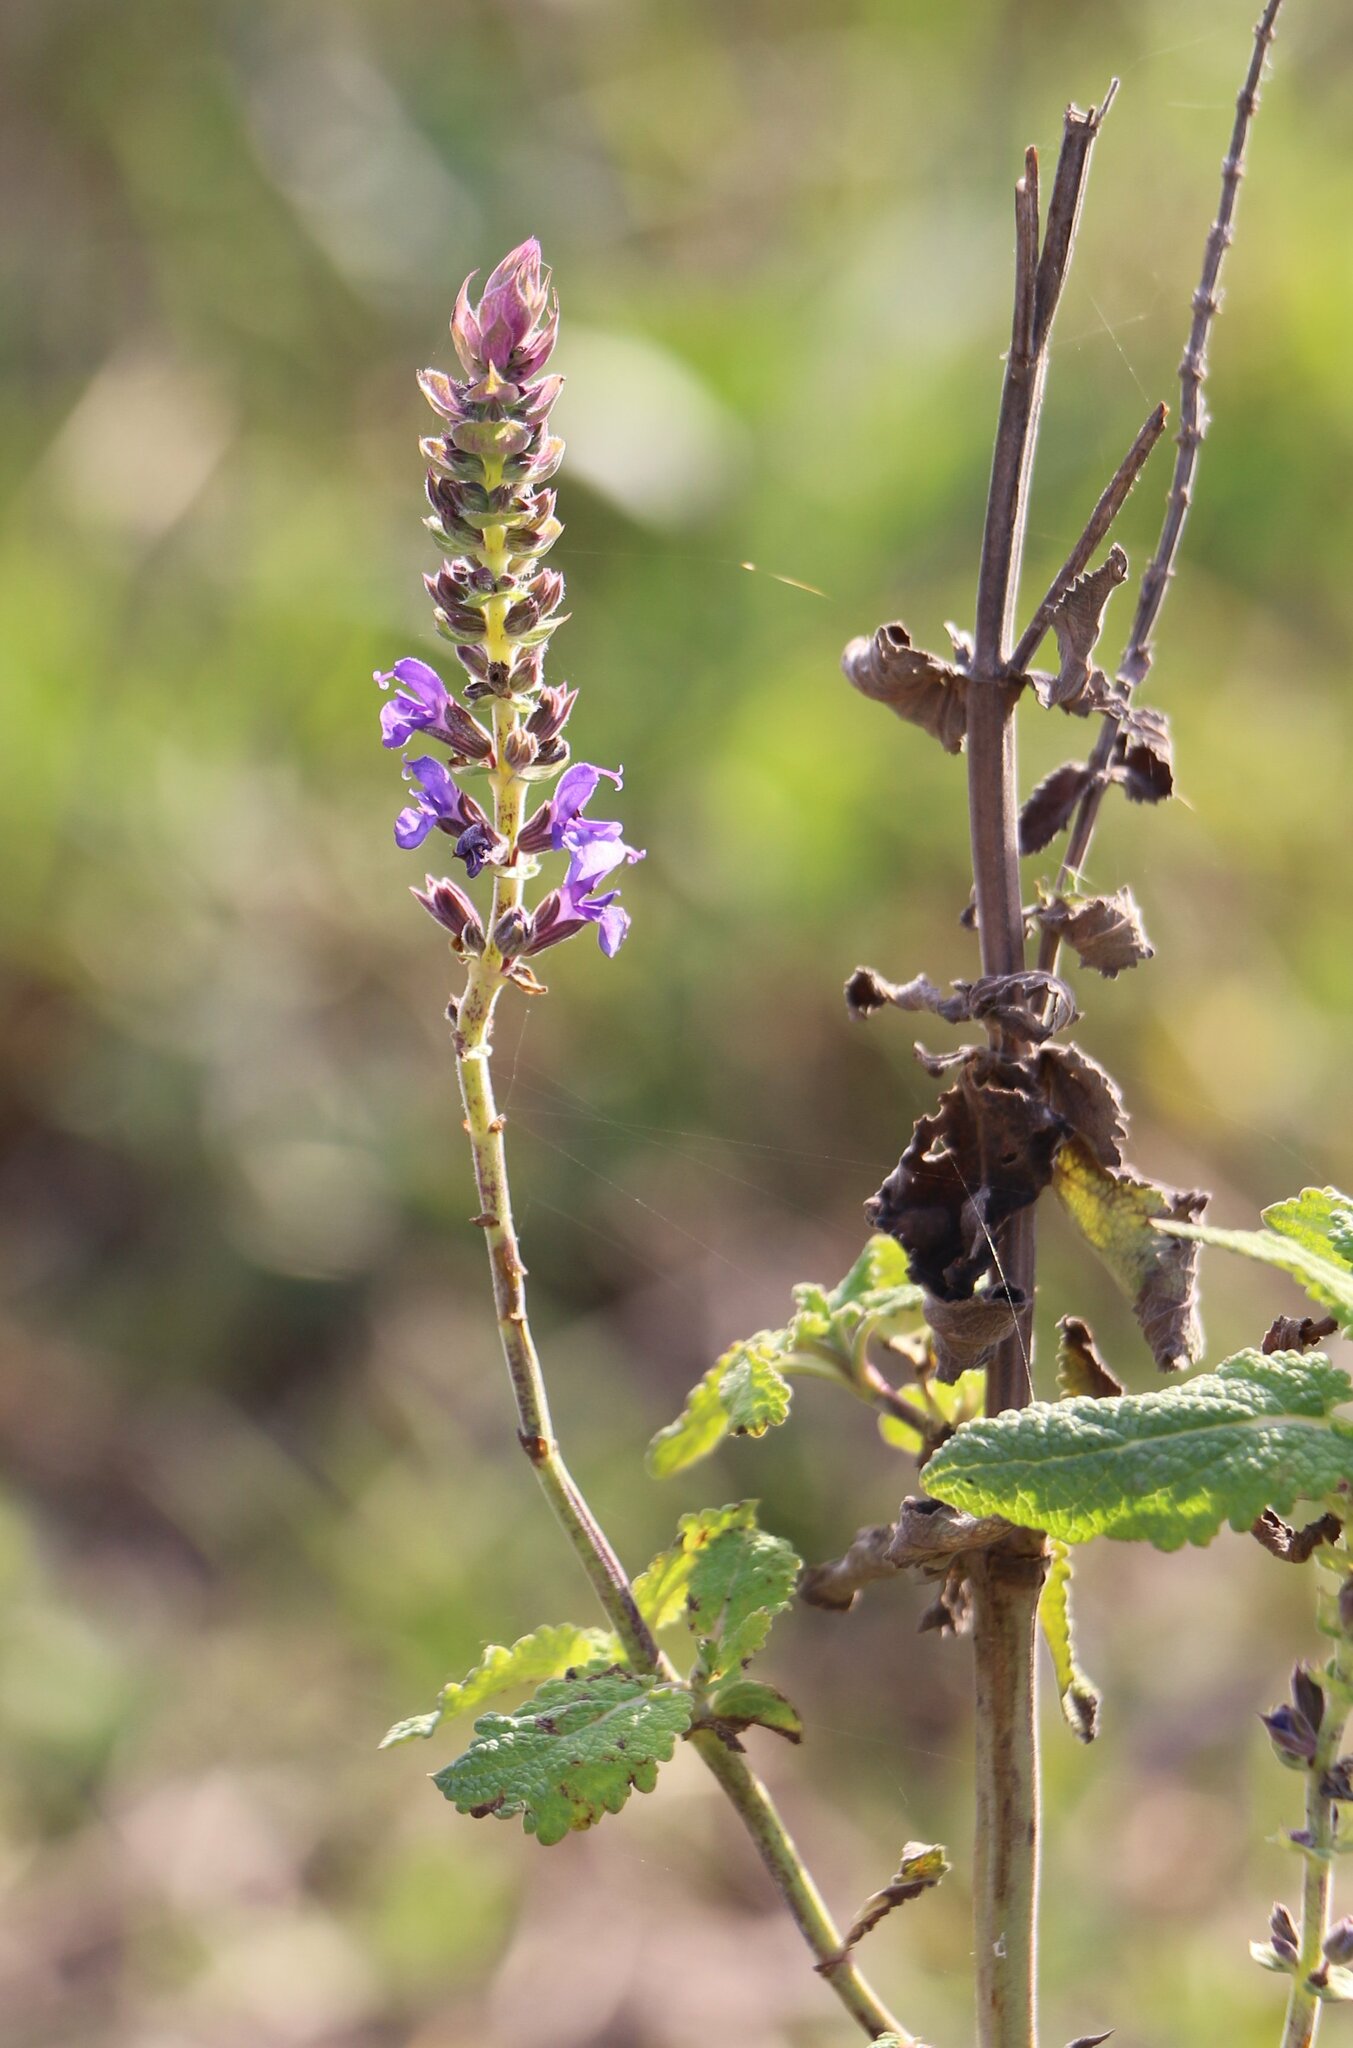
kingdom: Plantae
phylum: Tracheophyta
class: Magnoliopsida
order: Lamiales
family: Lamiaceae
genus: Salvia
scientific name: Salvia nemorosa
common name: Balkan clary
